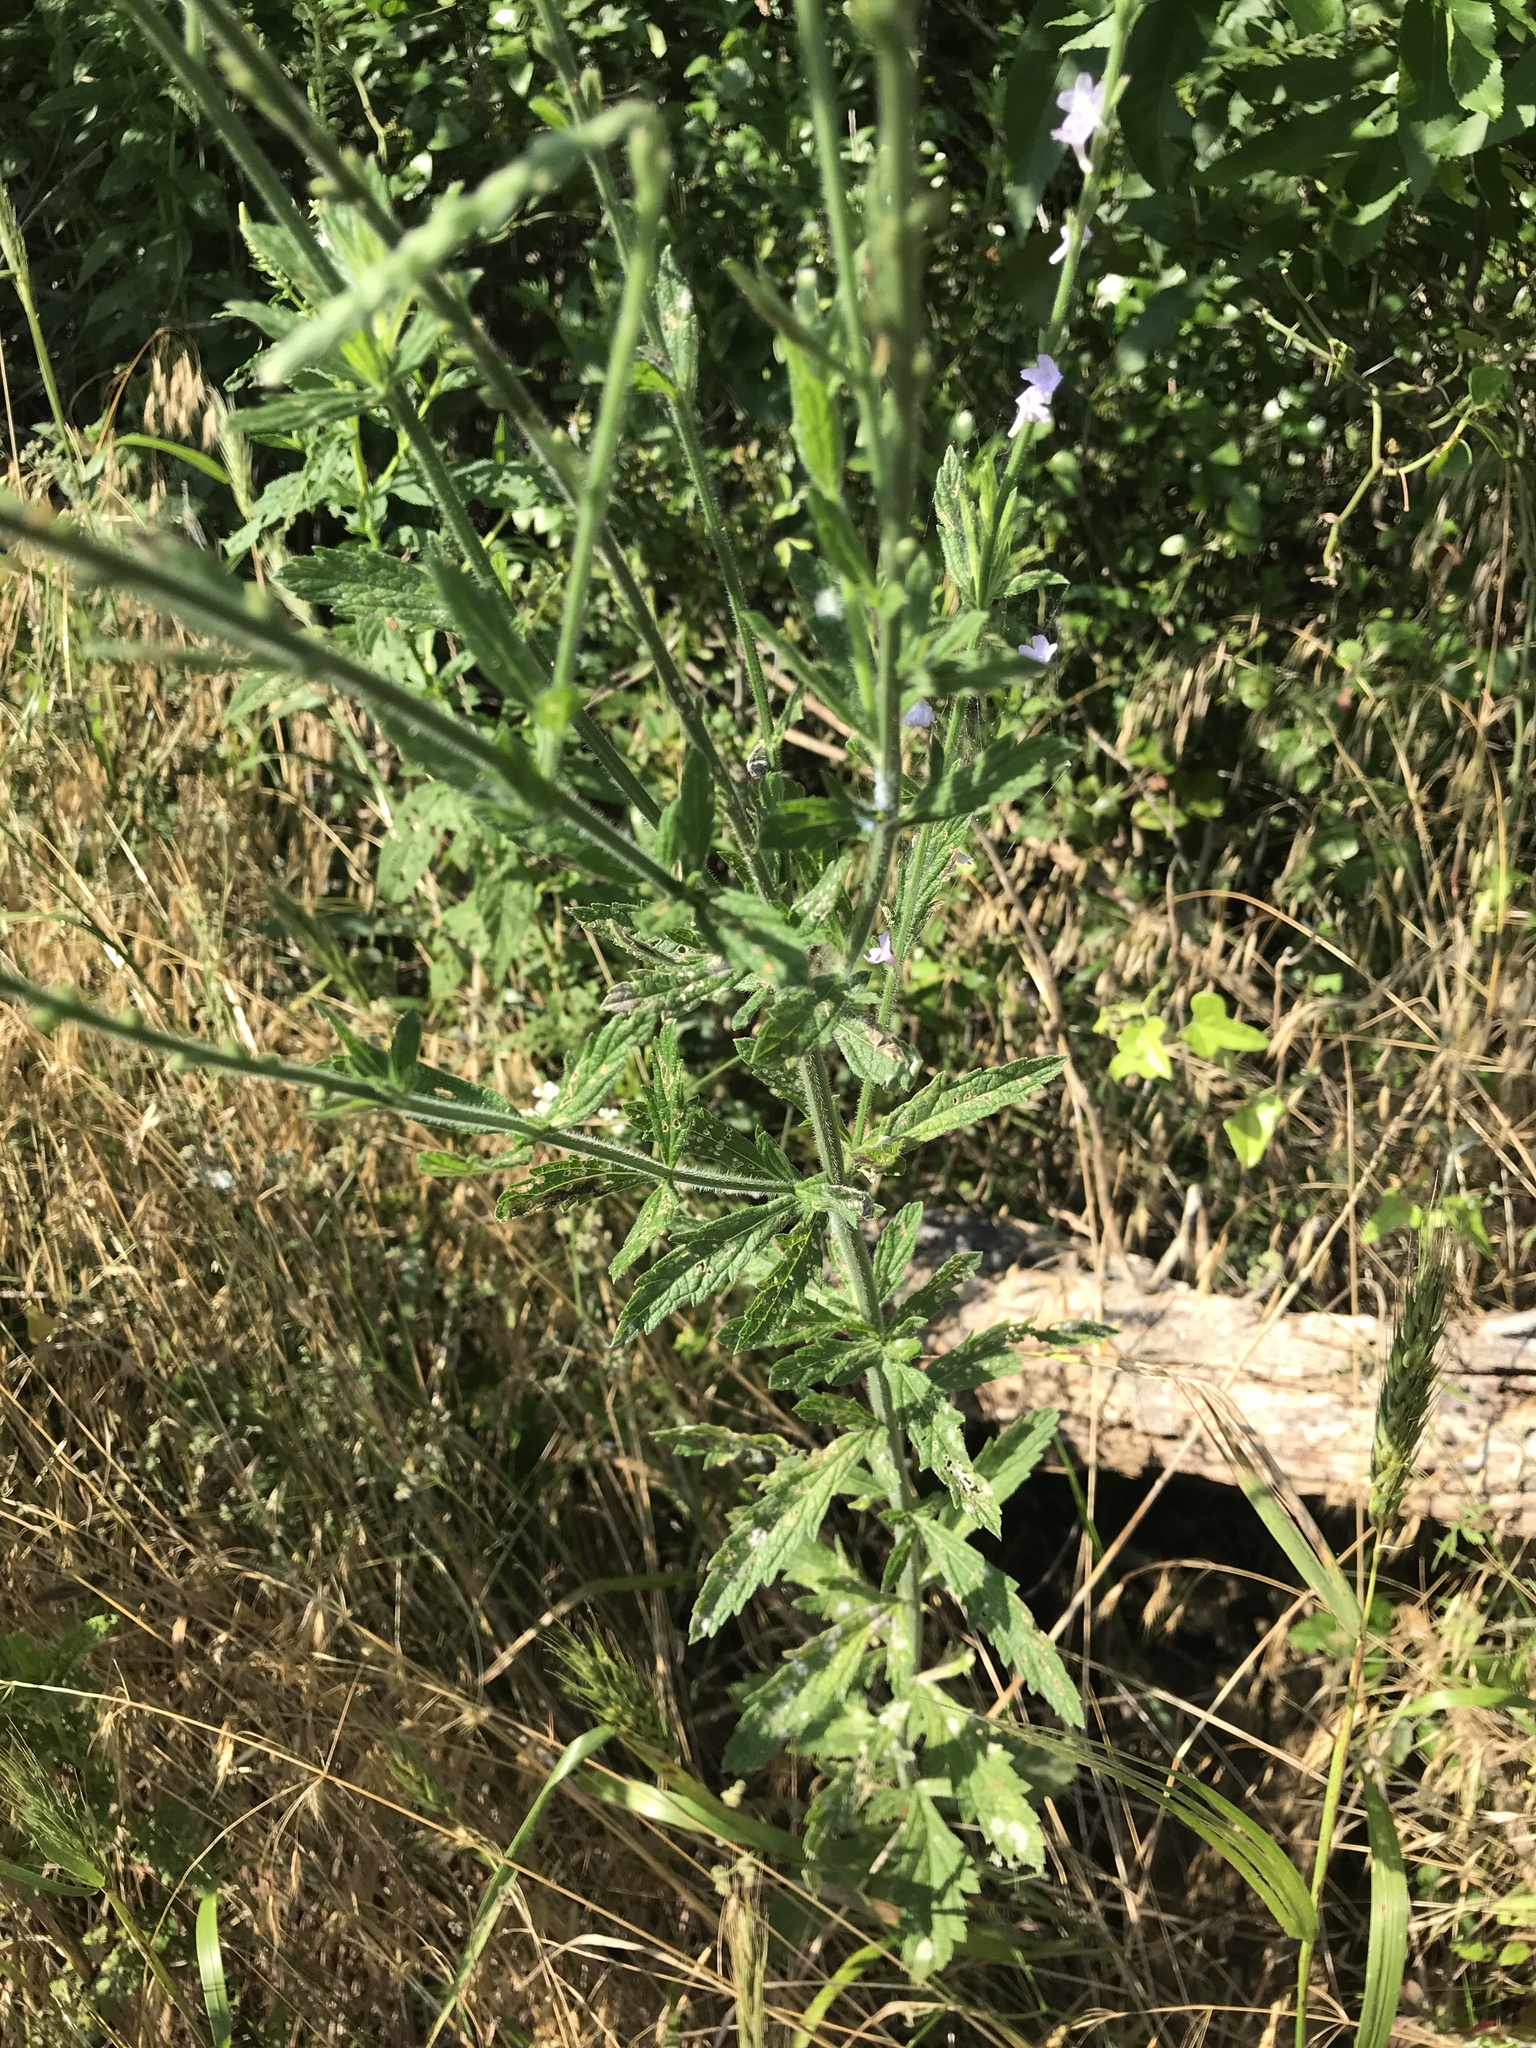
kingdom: Plantae
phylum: Tracheophyta
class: Magnoliopsida
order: Lamiales
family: Verbenaceae
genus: Verbena
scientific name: Verbena xutha
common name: Gulf vervain
